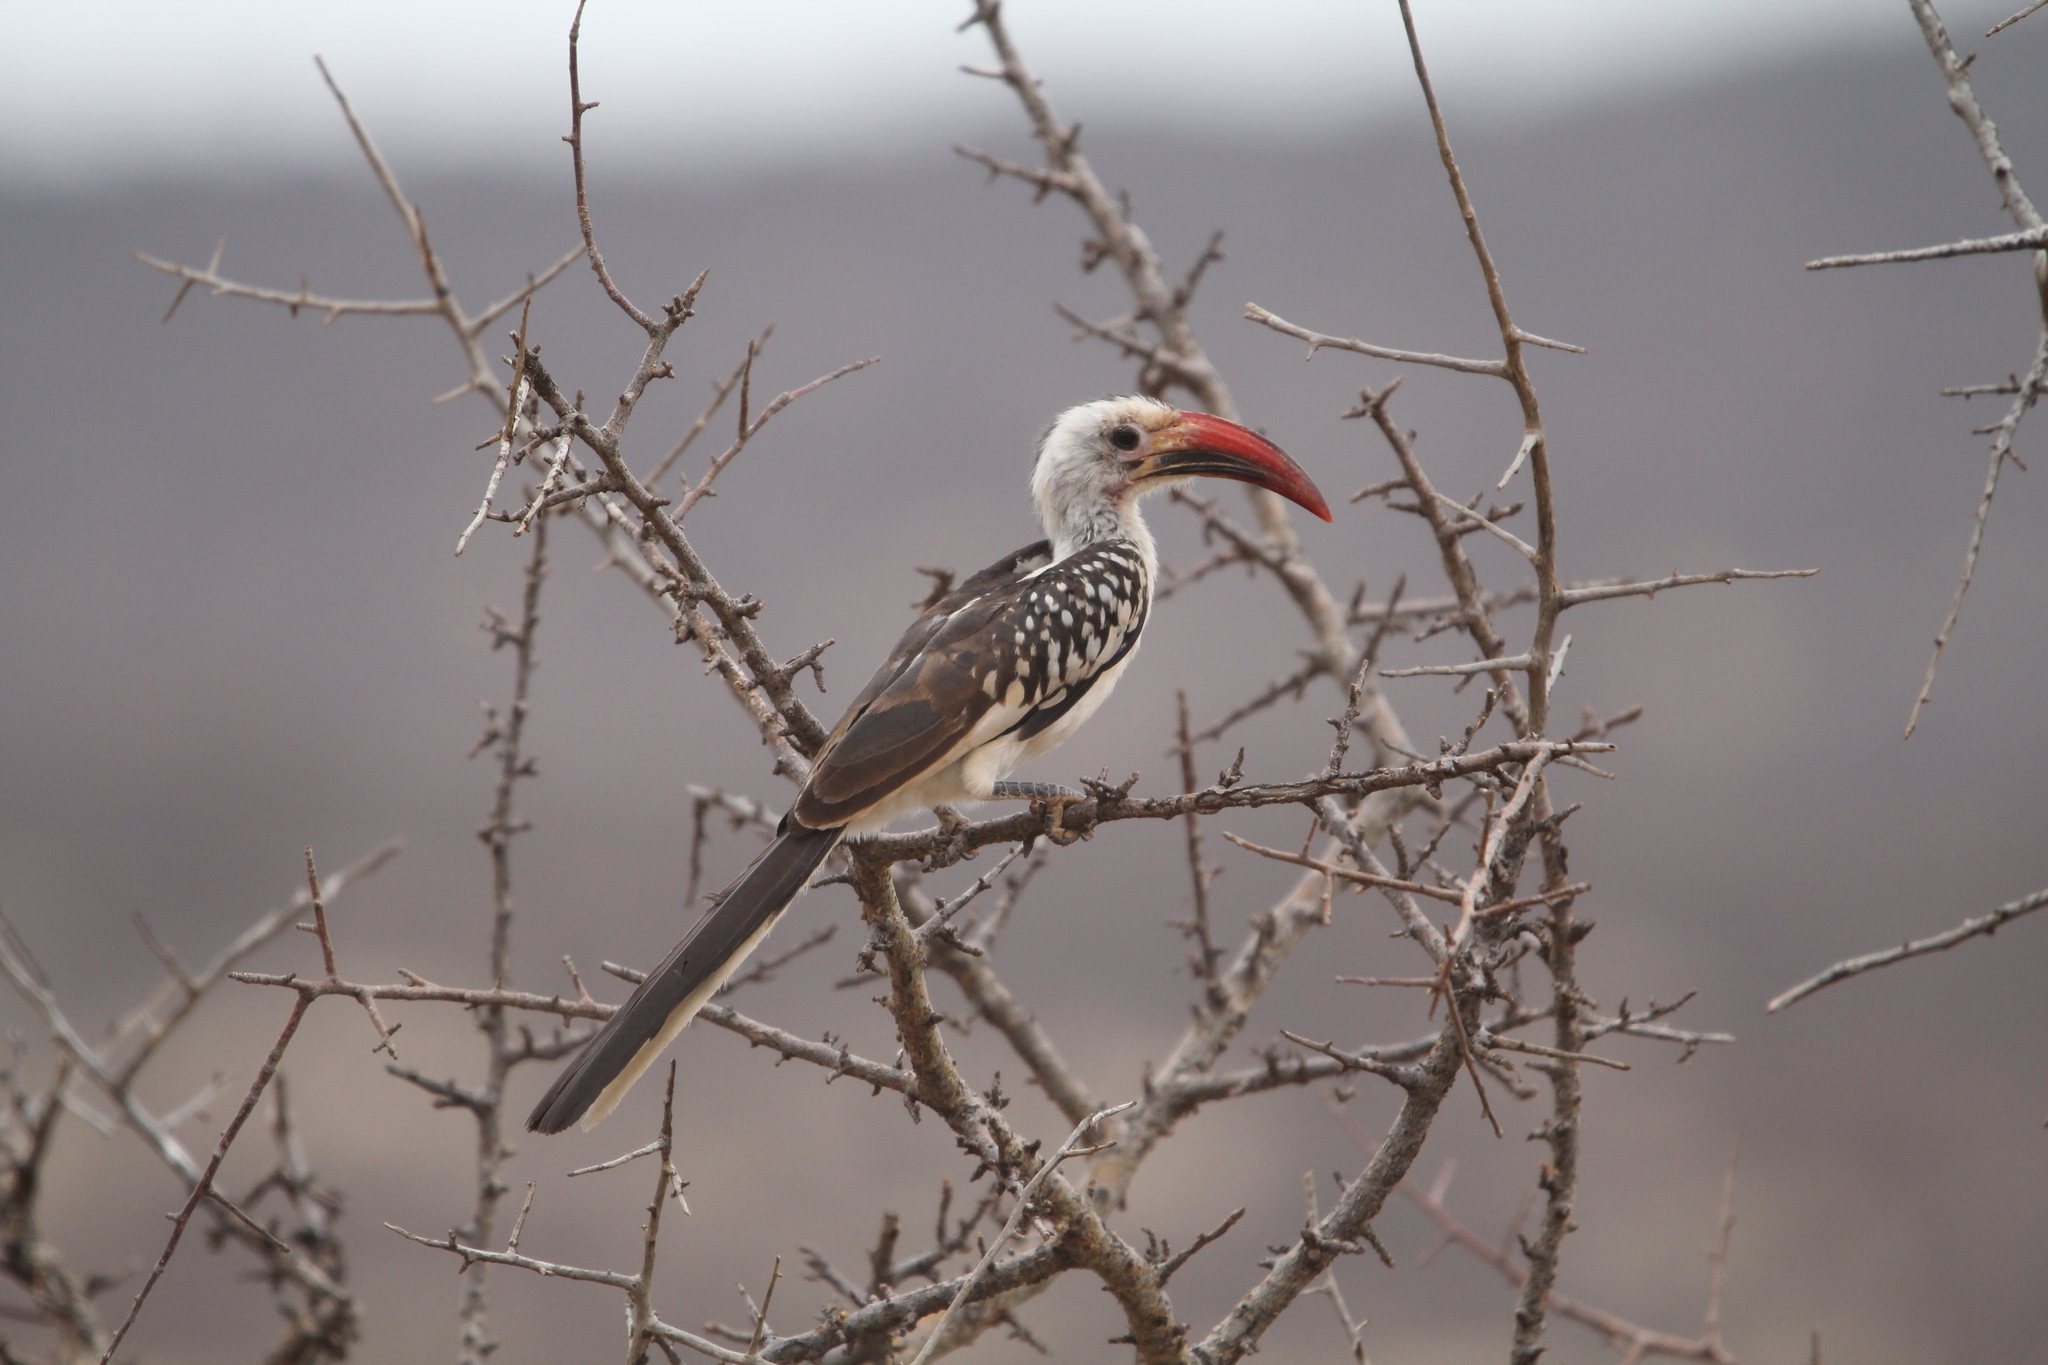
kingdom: Animalia
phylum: Chordata
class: Aves
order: Bucerotiformes
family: Bucerotidae
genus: Tockus
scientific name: Tockus erythrorhynchus
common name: Northern red-billed hornbill
